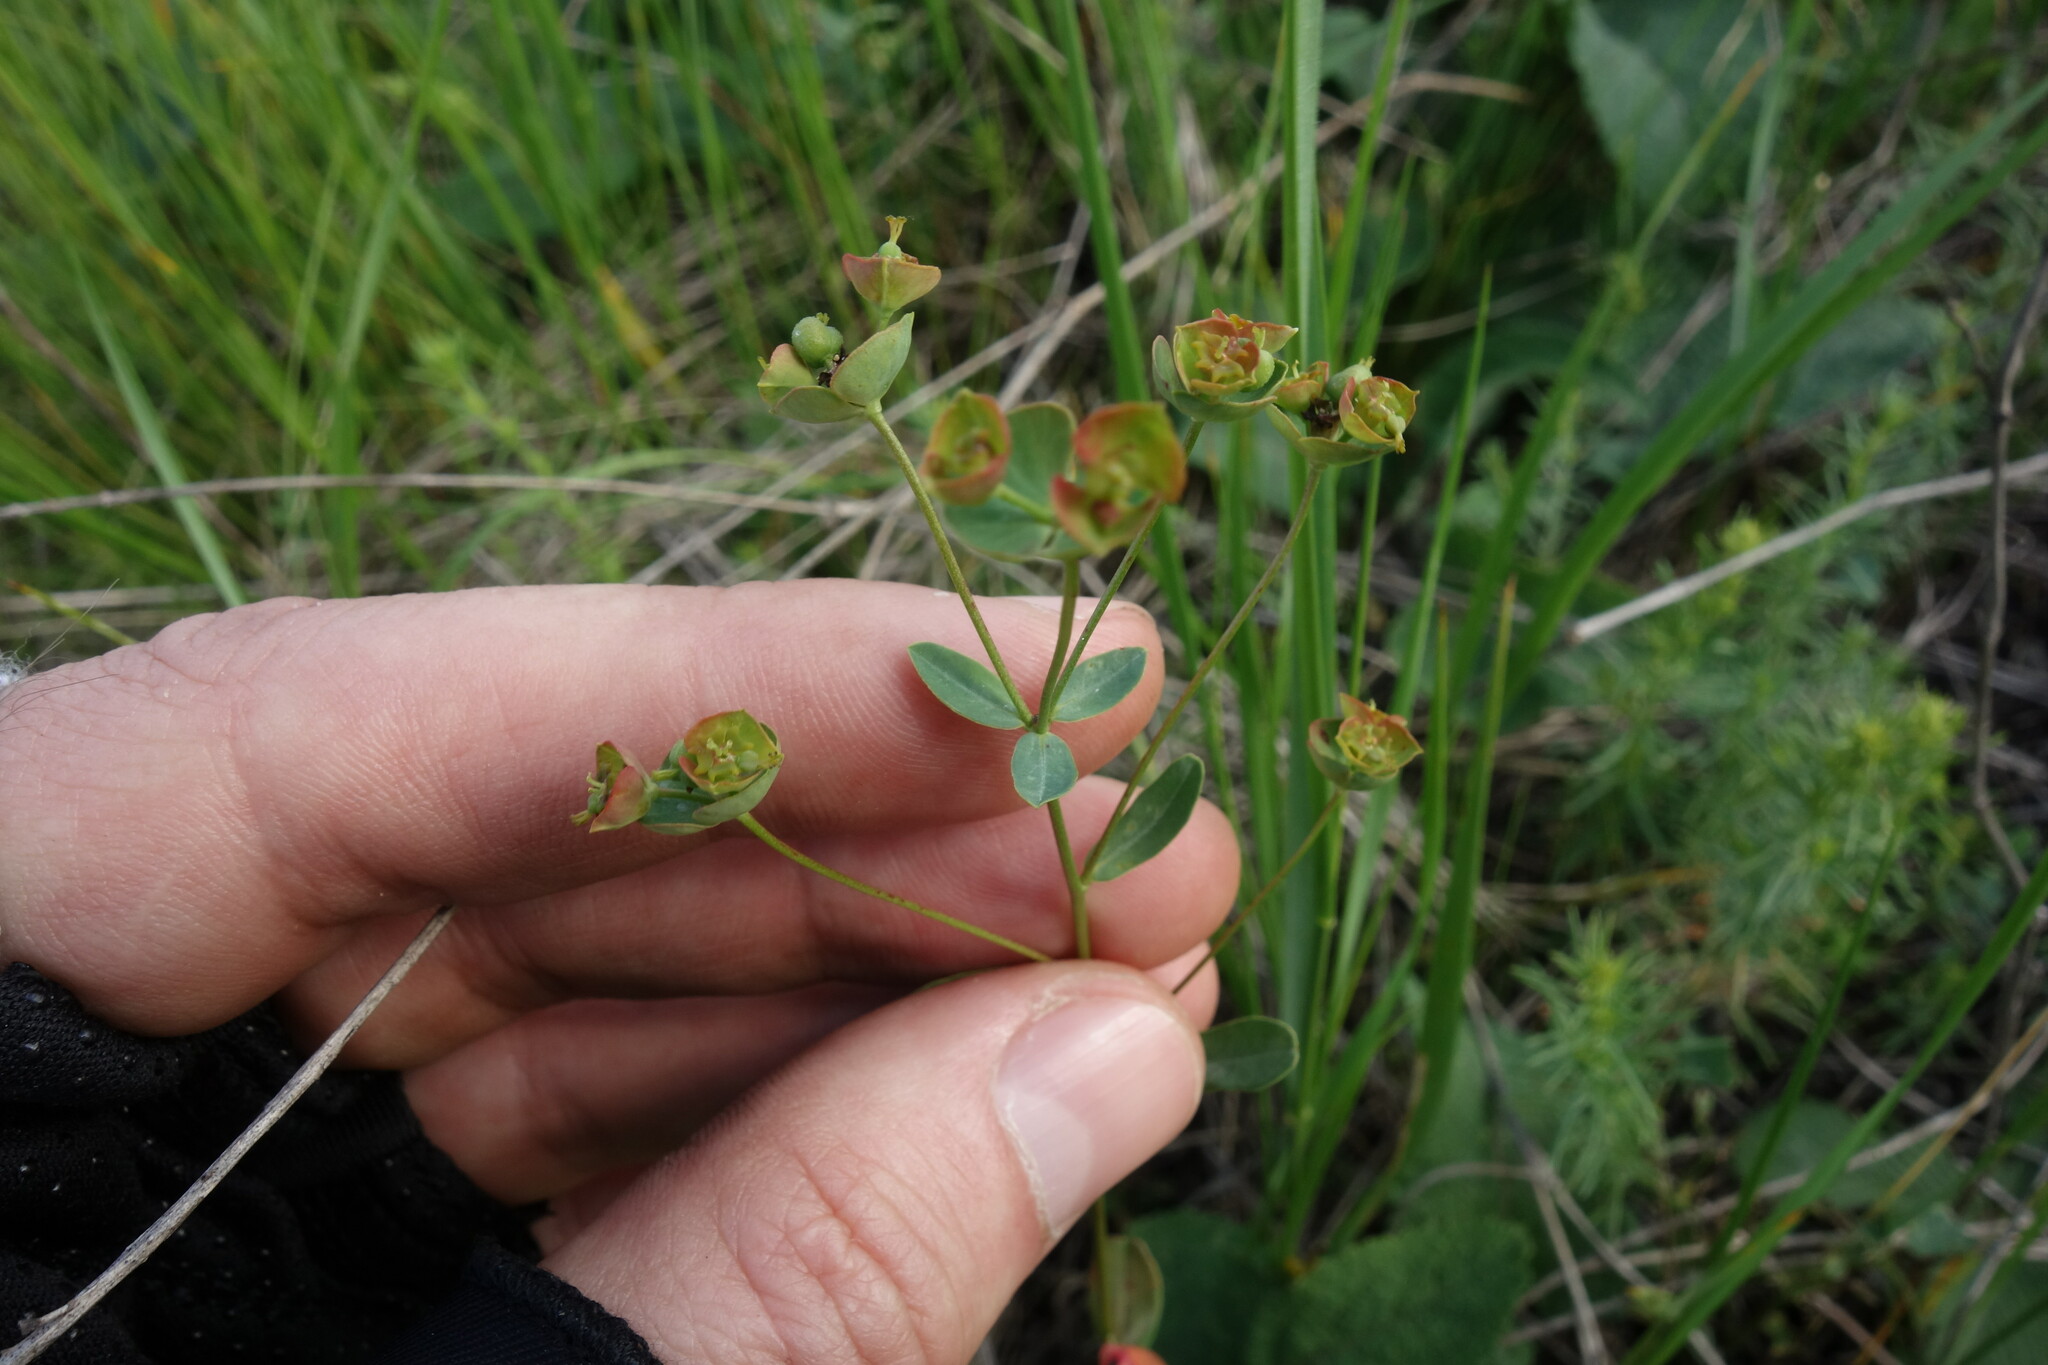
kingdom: Plantae
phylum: Tracheophyta
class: Magnoliopsida
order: Malpighiales
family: Euphorbiaceae
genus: Euphorbia
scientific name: Euphorbia sareptana
